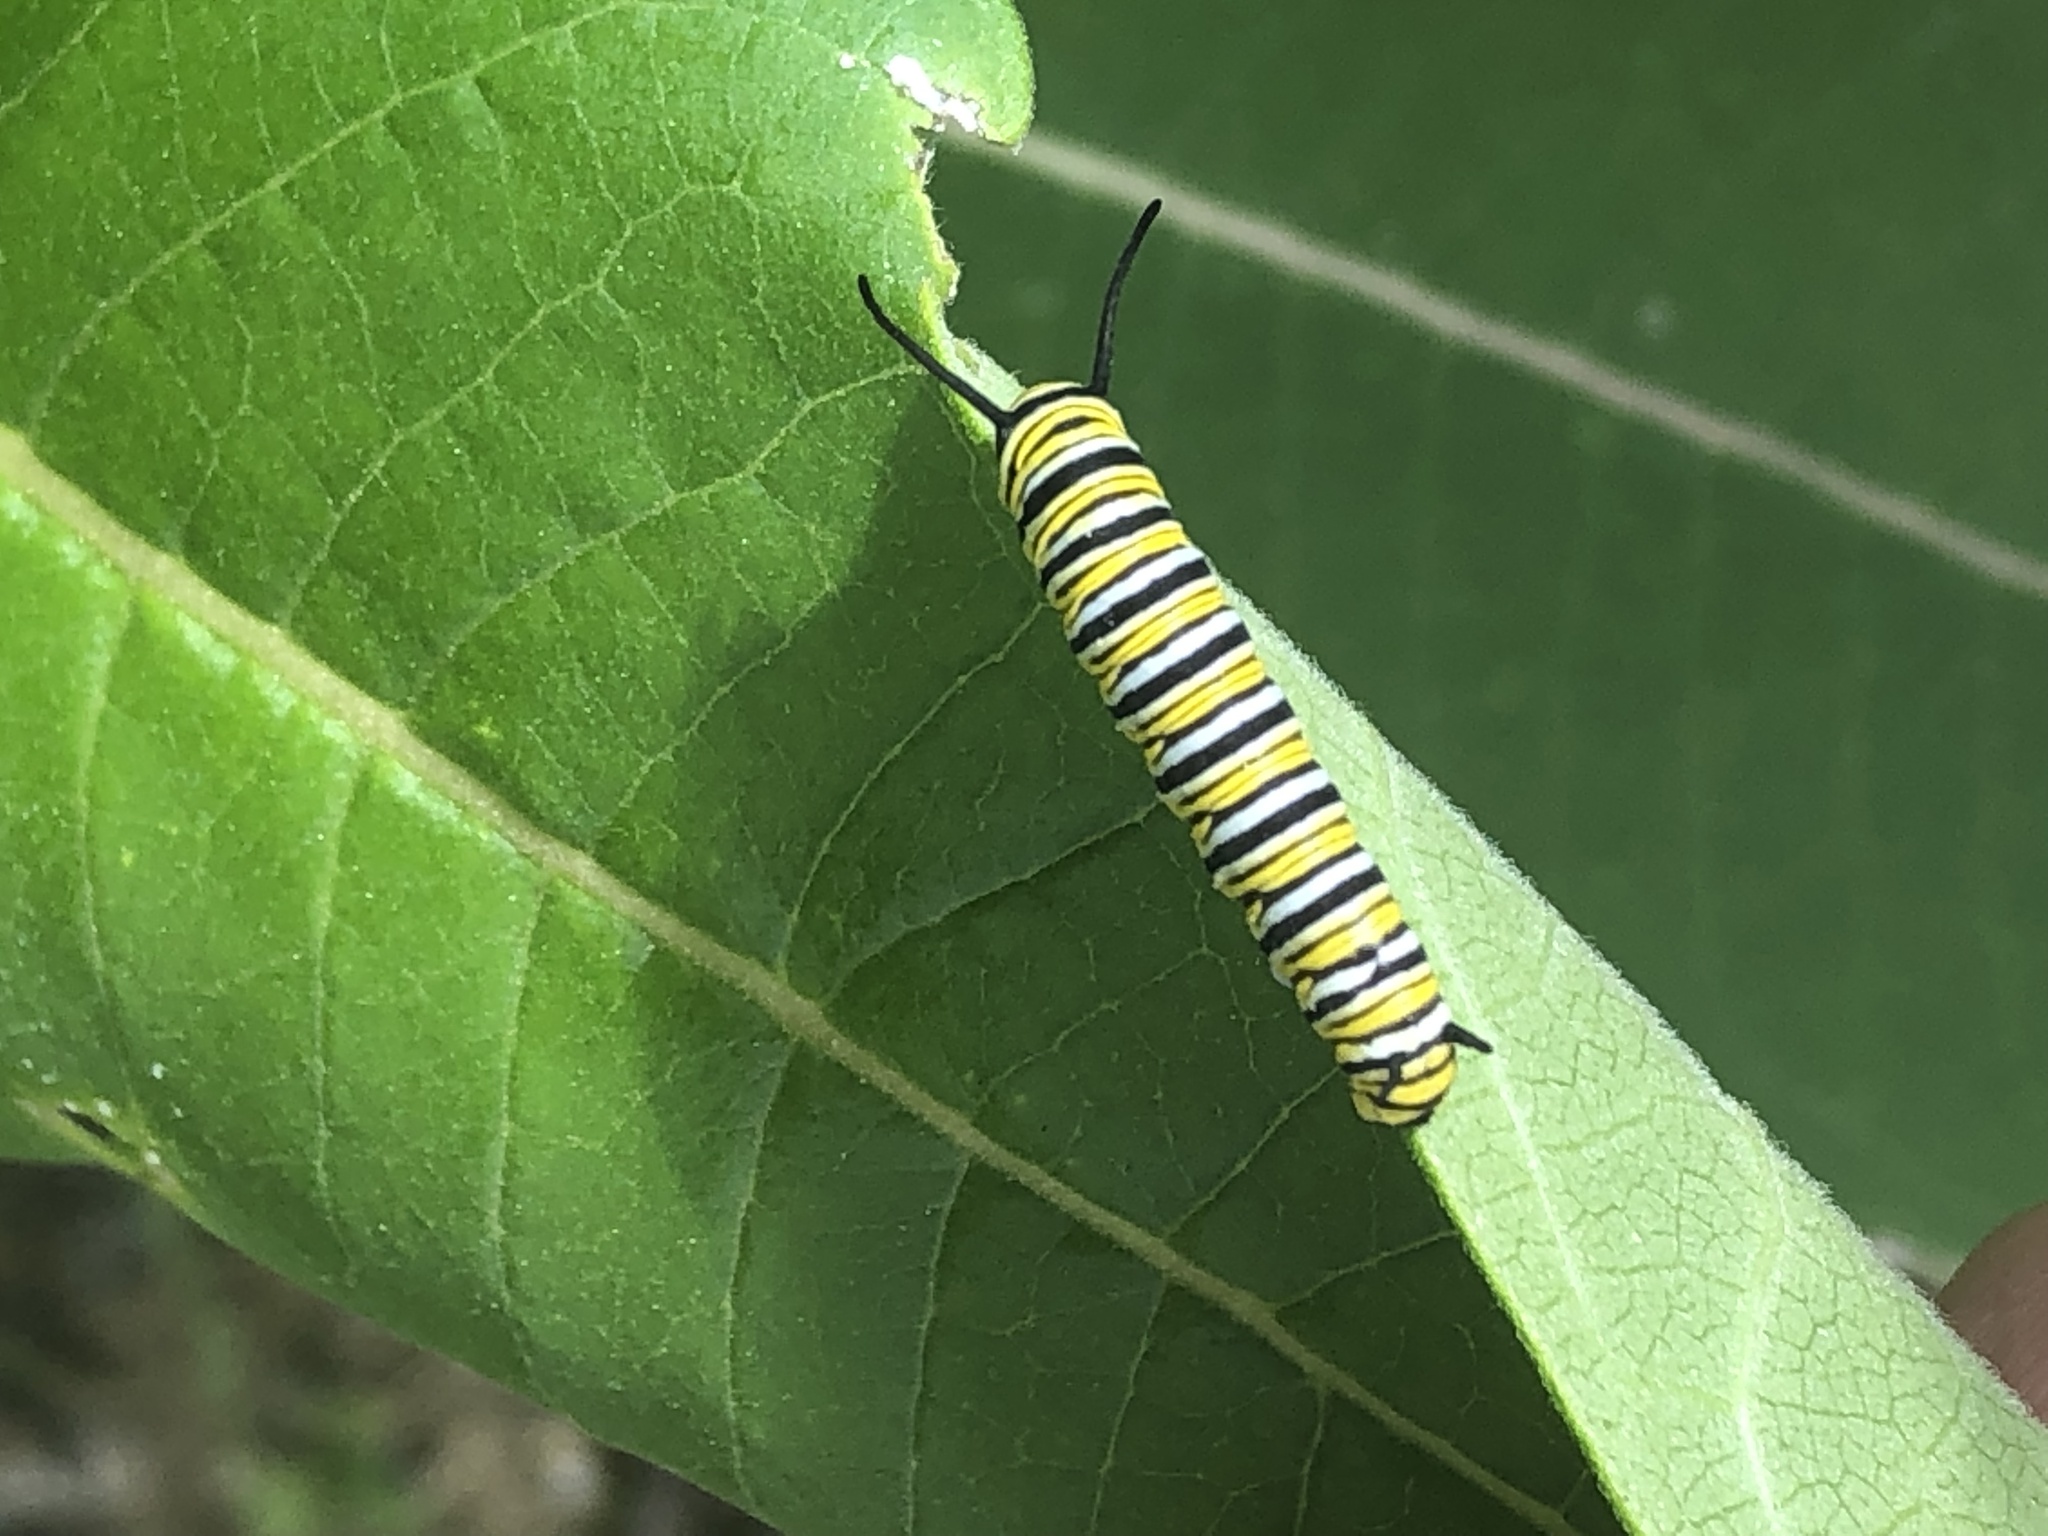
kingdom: Animalia
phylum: Arthropoda
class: Insecta
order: Lepidoptera
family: Nymphalidae
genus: Danaus
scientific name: Danaus plexippus
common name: Monarch
